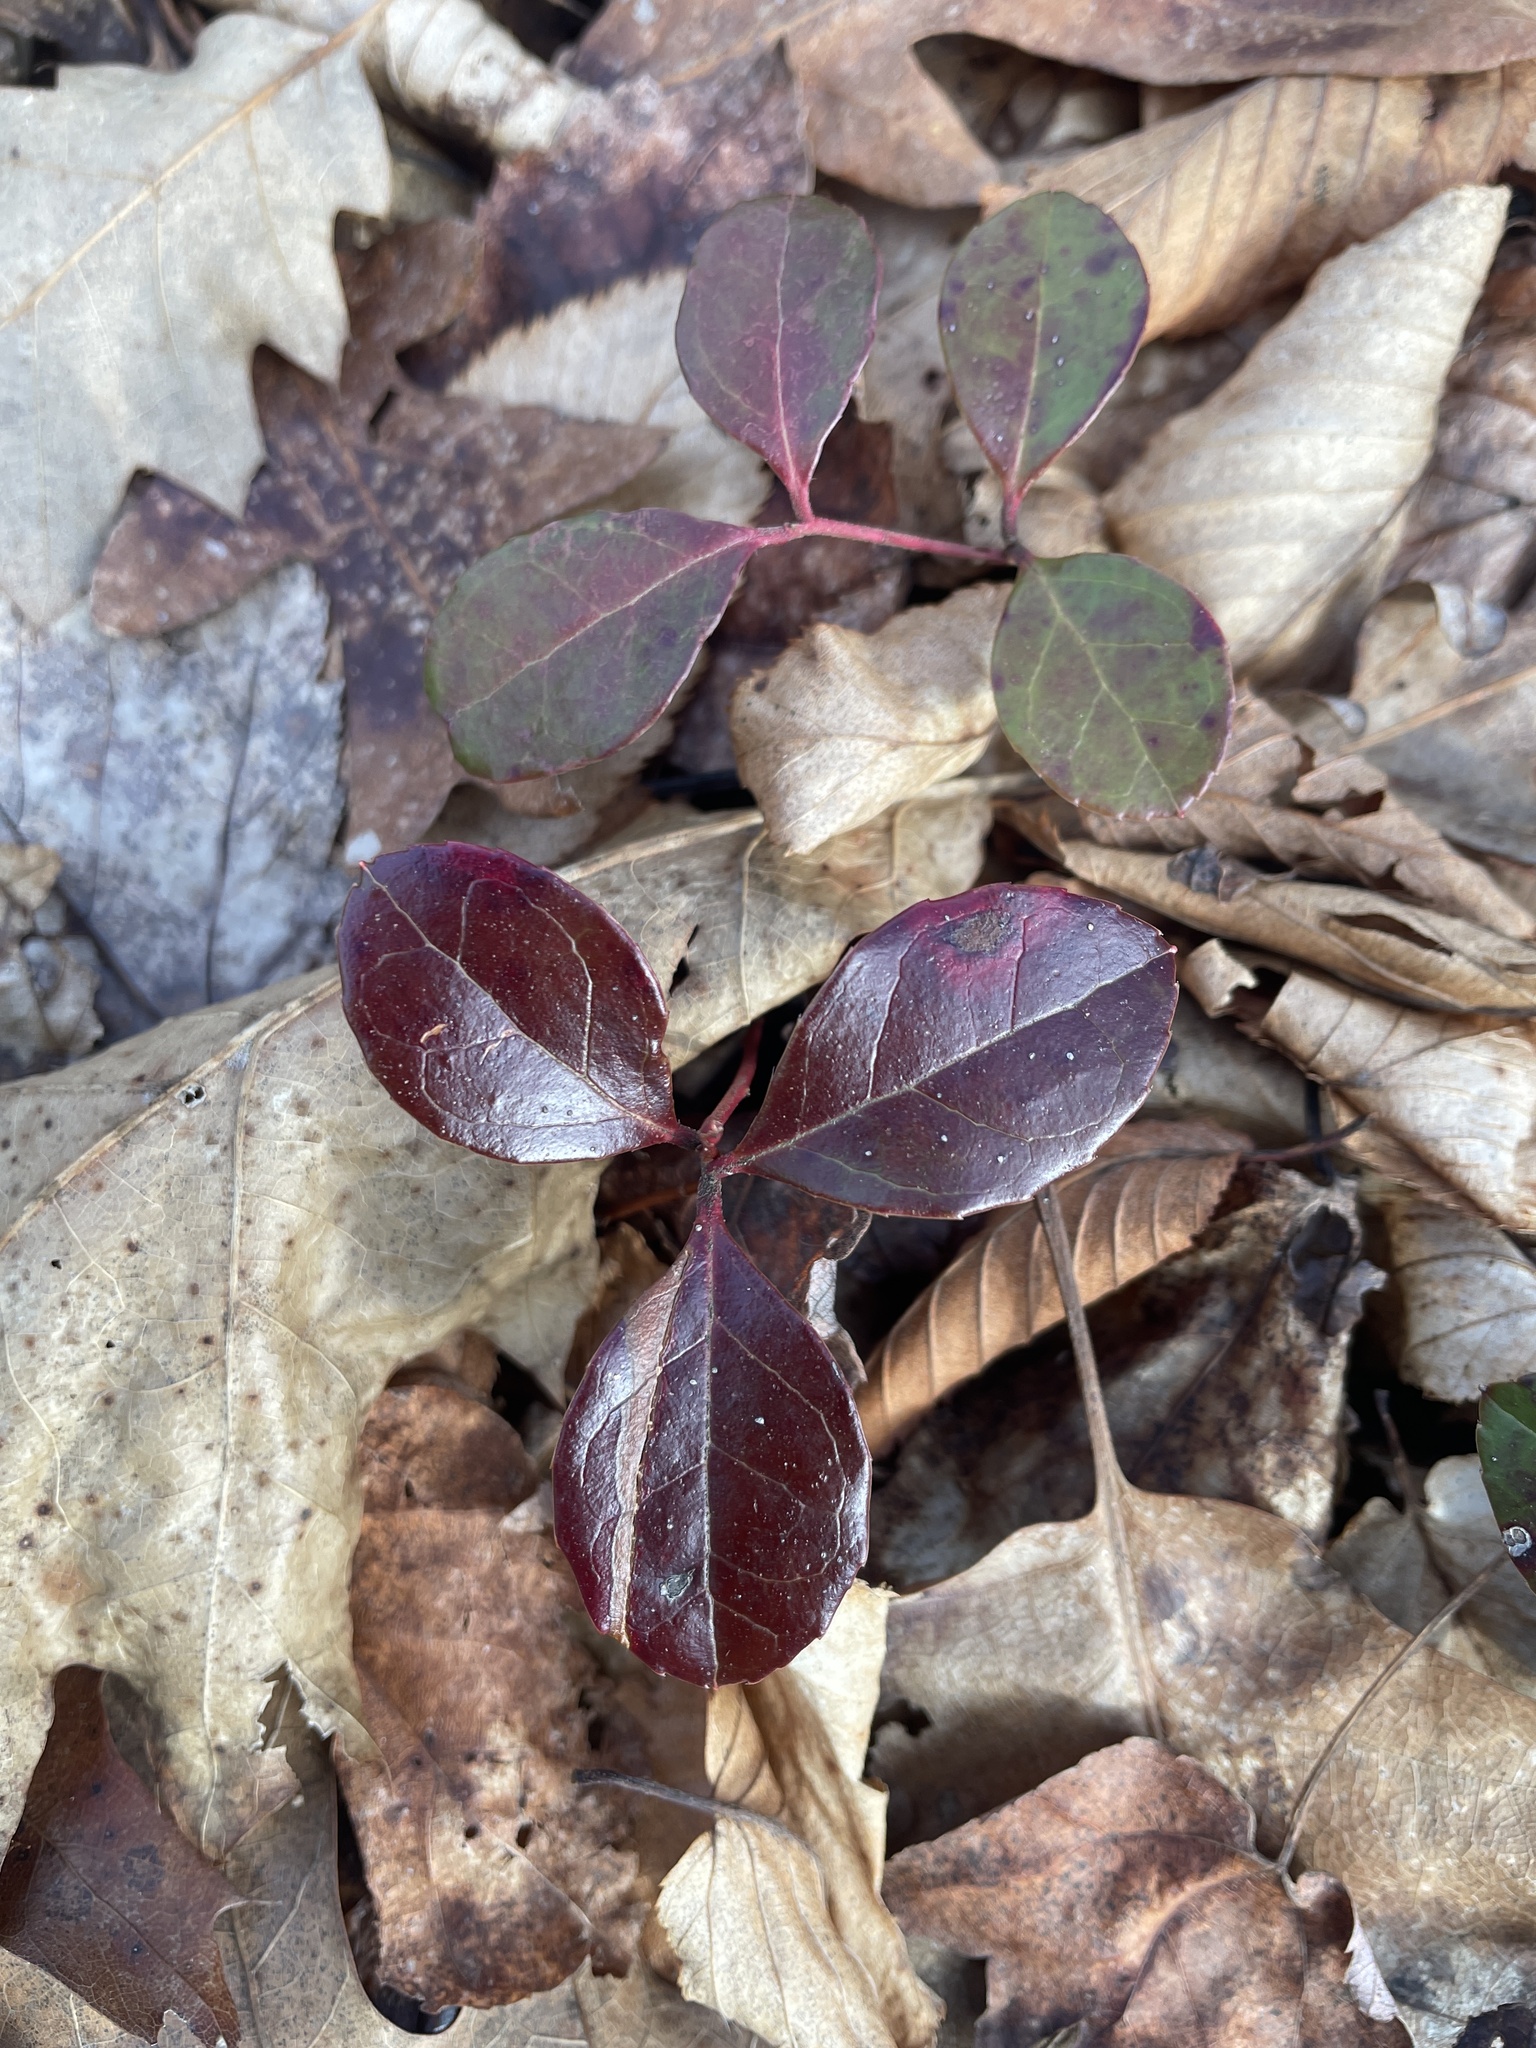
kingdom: Plantae
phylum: Tracheophyta
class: Magnoliopsida
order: Ericales
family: Ericaceae
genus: Gaultheria
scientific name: Gaultheria procumbens
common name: Checkerberry
